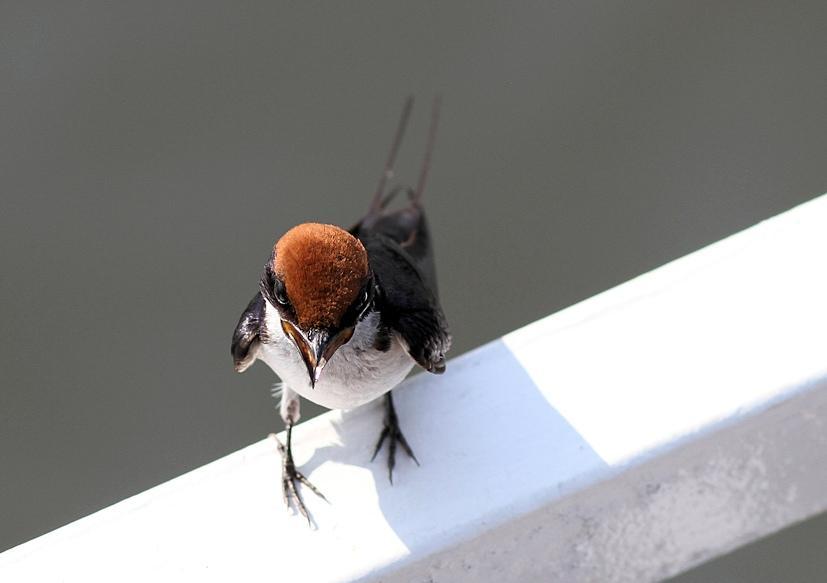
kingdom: Animalia
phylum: Chordata
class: Aves
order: Passeriformes
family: Hirundinidae
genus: Hirundo
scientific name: Hirundo smithii
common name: Wire-tailed swallow
